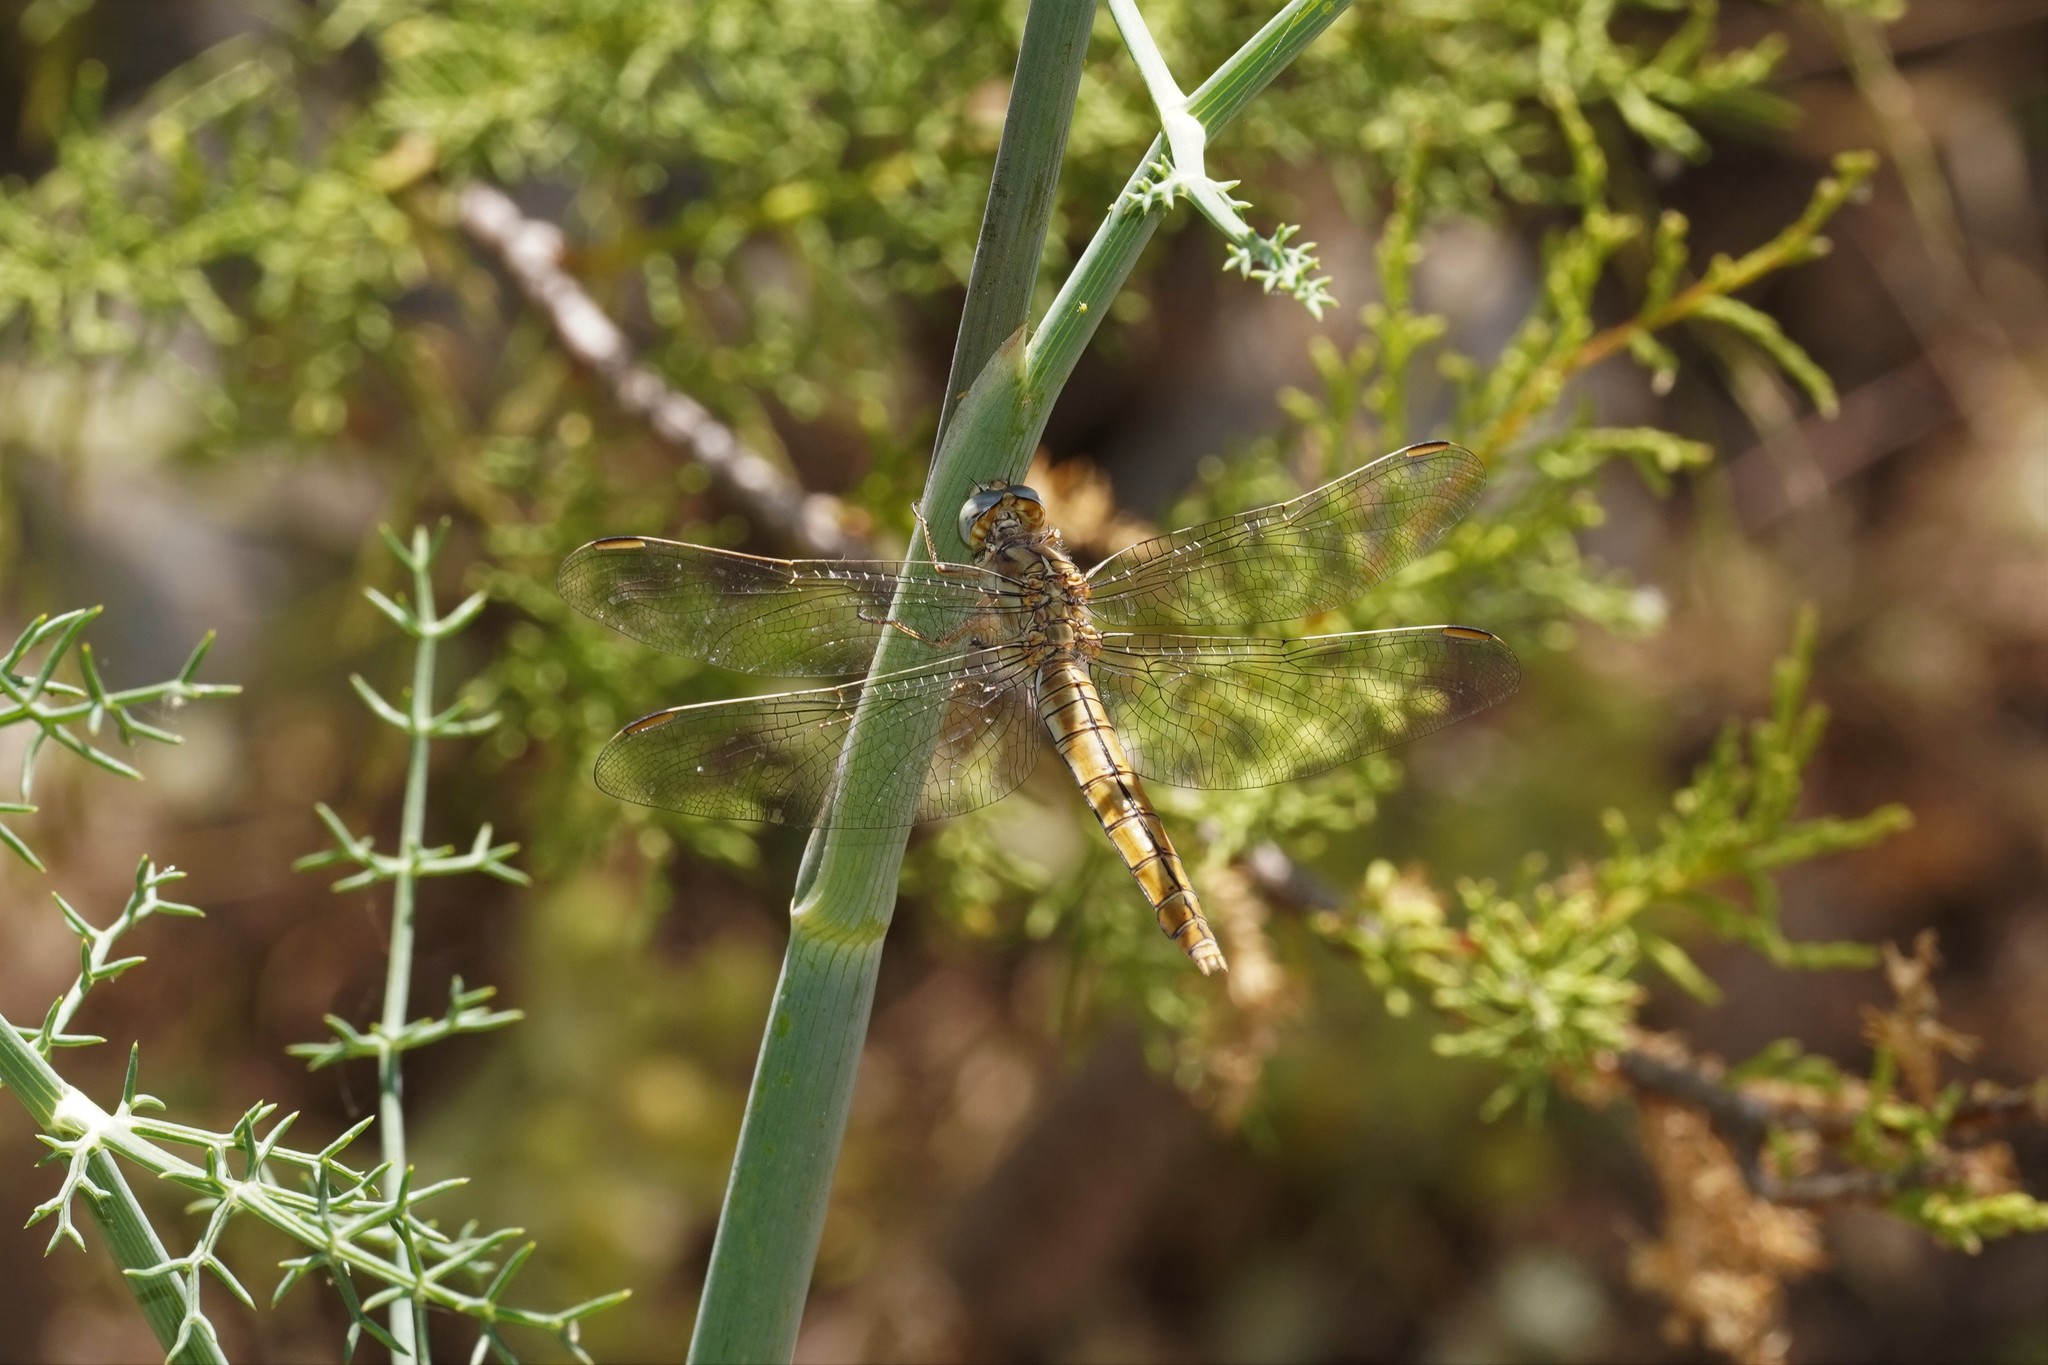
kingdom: Animalia
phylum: Arthropoda
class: Insecta
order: Odonata
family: Libellulidae
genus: Orthetrum
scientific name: Orthetrum brunneum
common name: Southern skimmer
